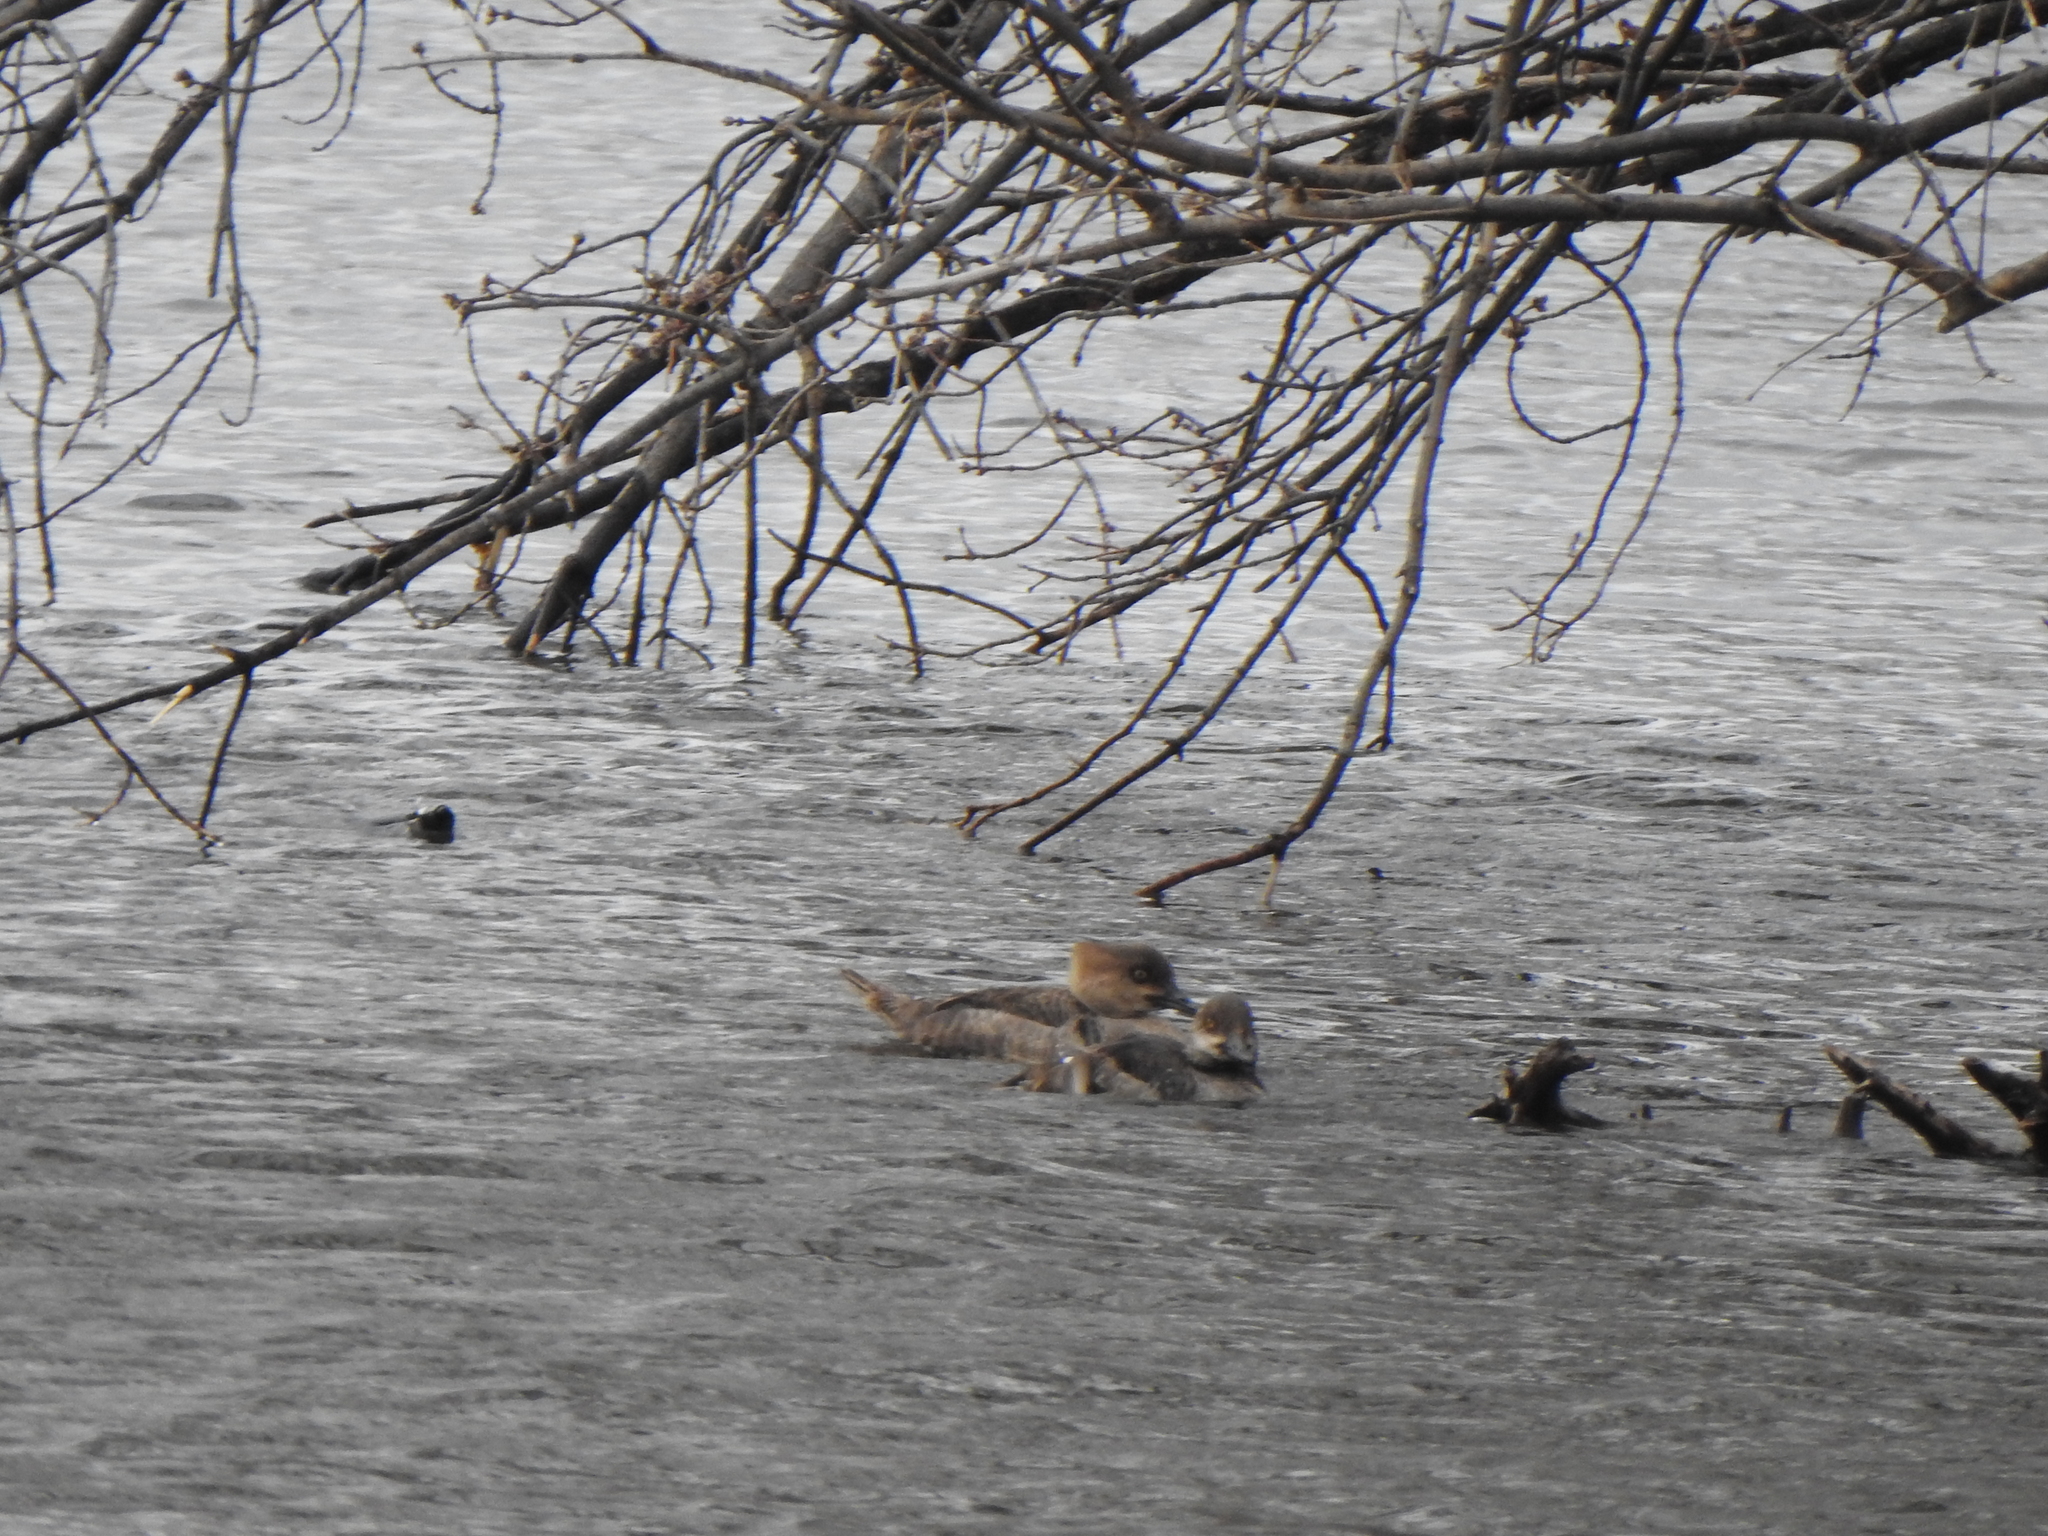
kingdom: Animalia
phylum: Chordata
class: Aves
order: Anseriformes
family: Anatidae
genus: Lophodytes
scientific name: Lophodytes cucullatus
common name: Hooded merganser
